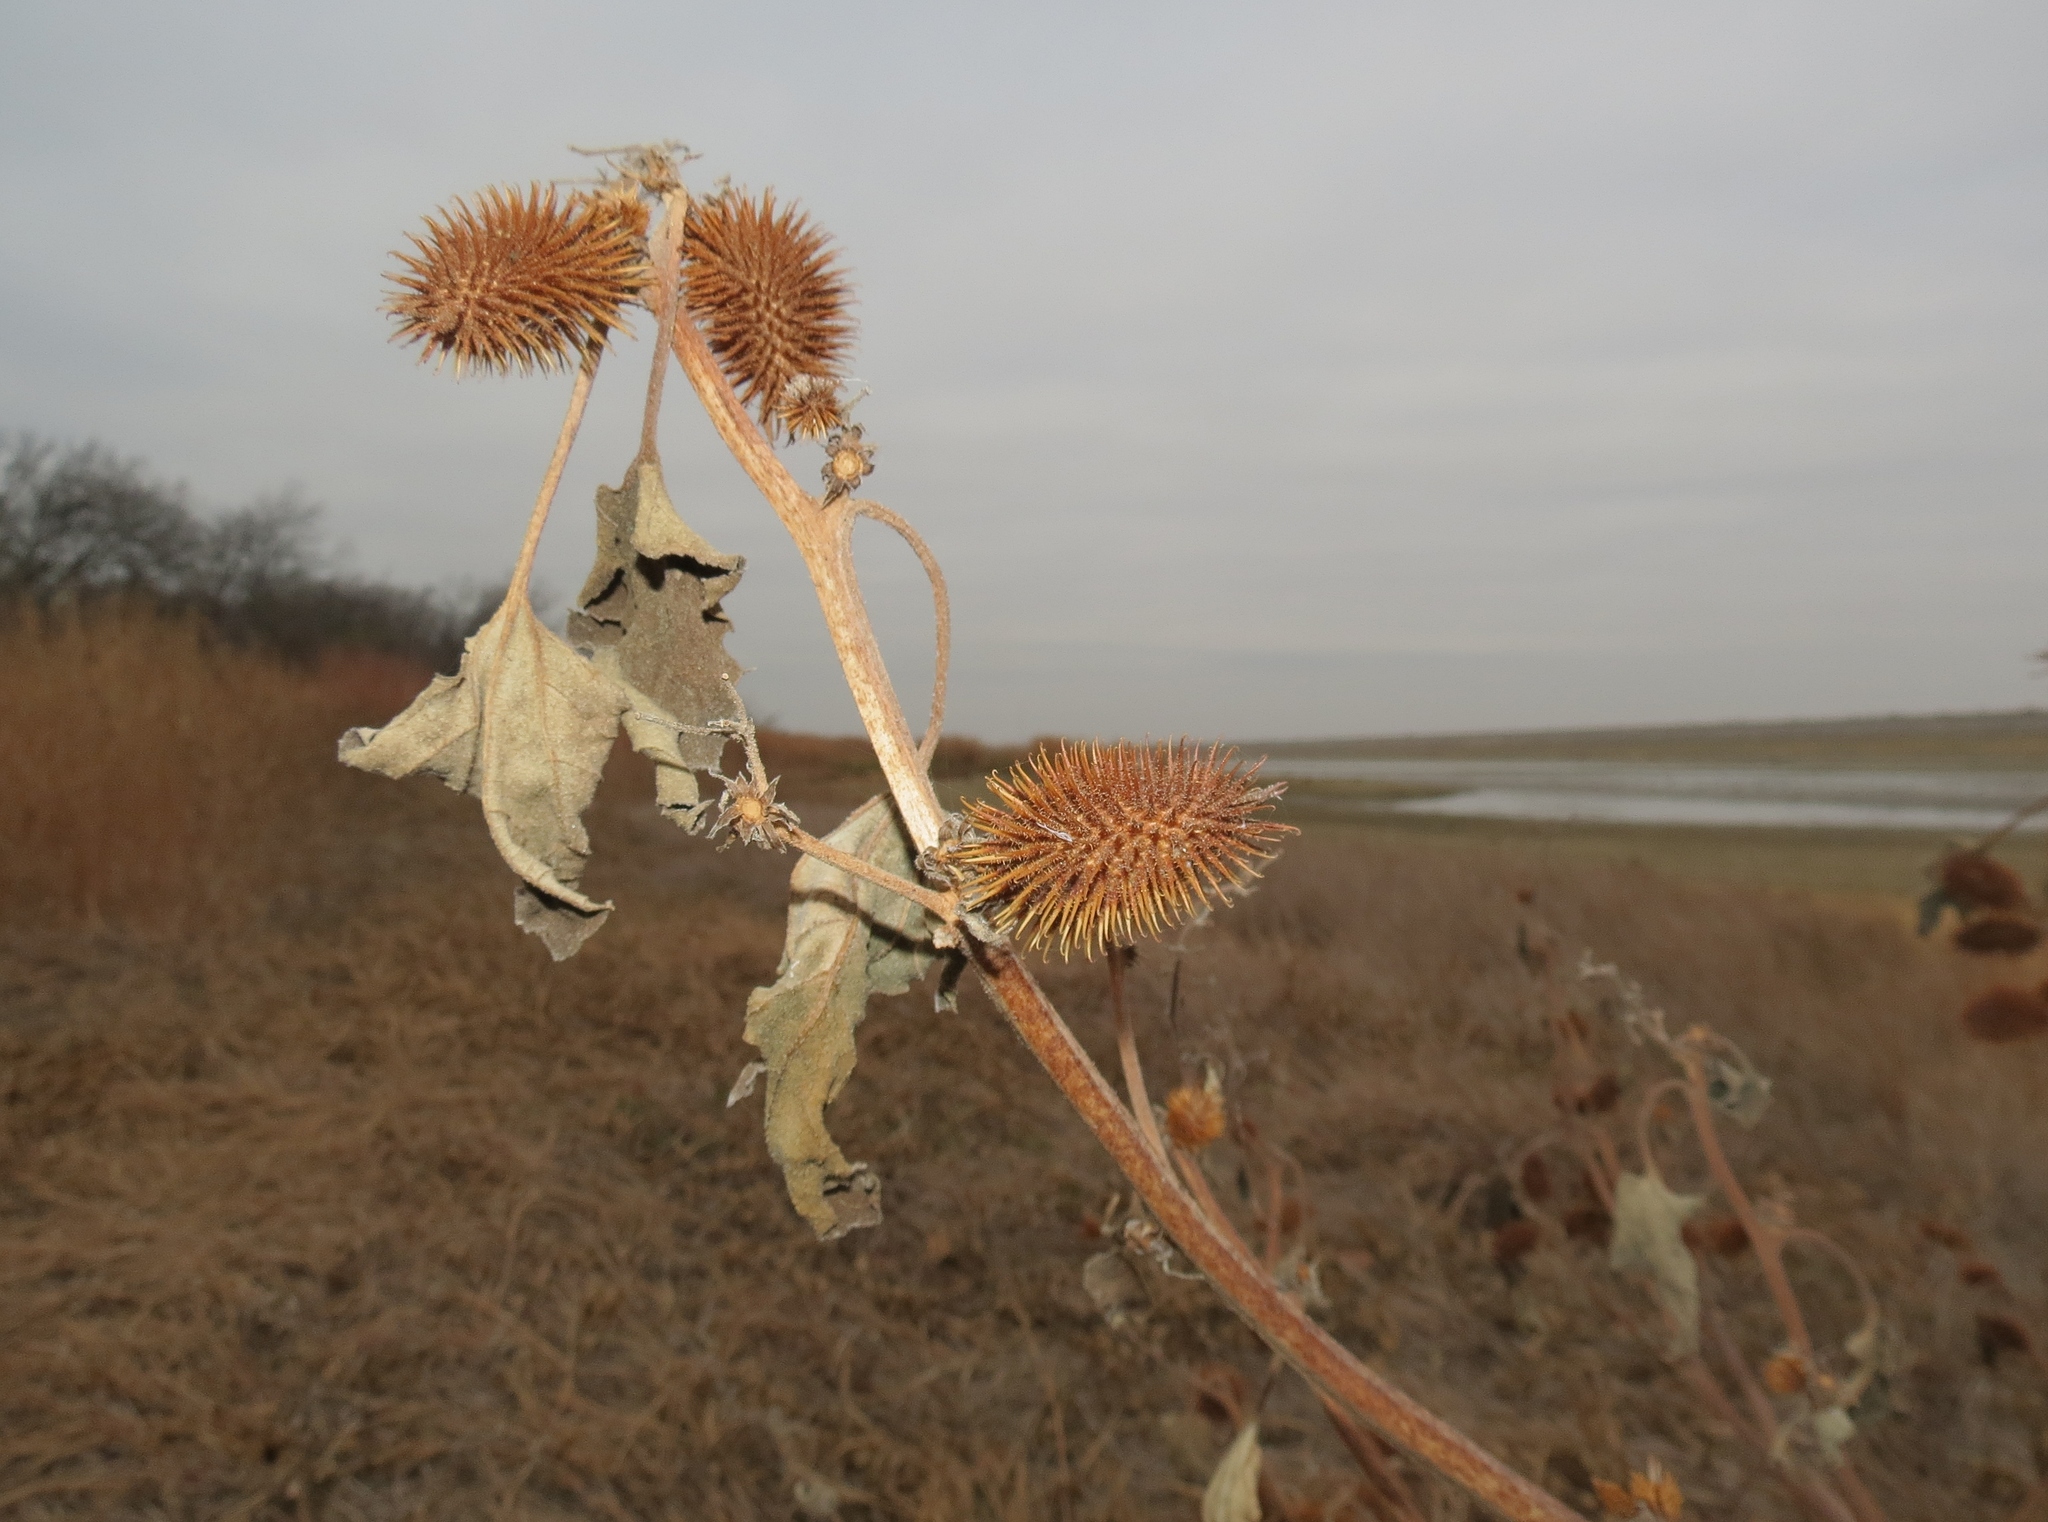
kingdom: Plantae
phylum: Tracheophyta
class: Magnoliopsida
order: Asterales
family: Asteraceae
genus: Xanthium
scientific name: Xanthium strumarium
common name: Rough cocklebur
